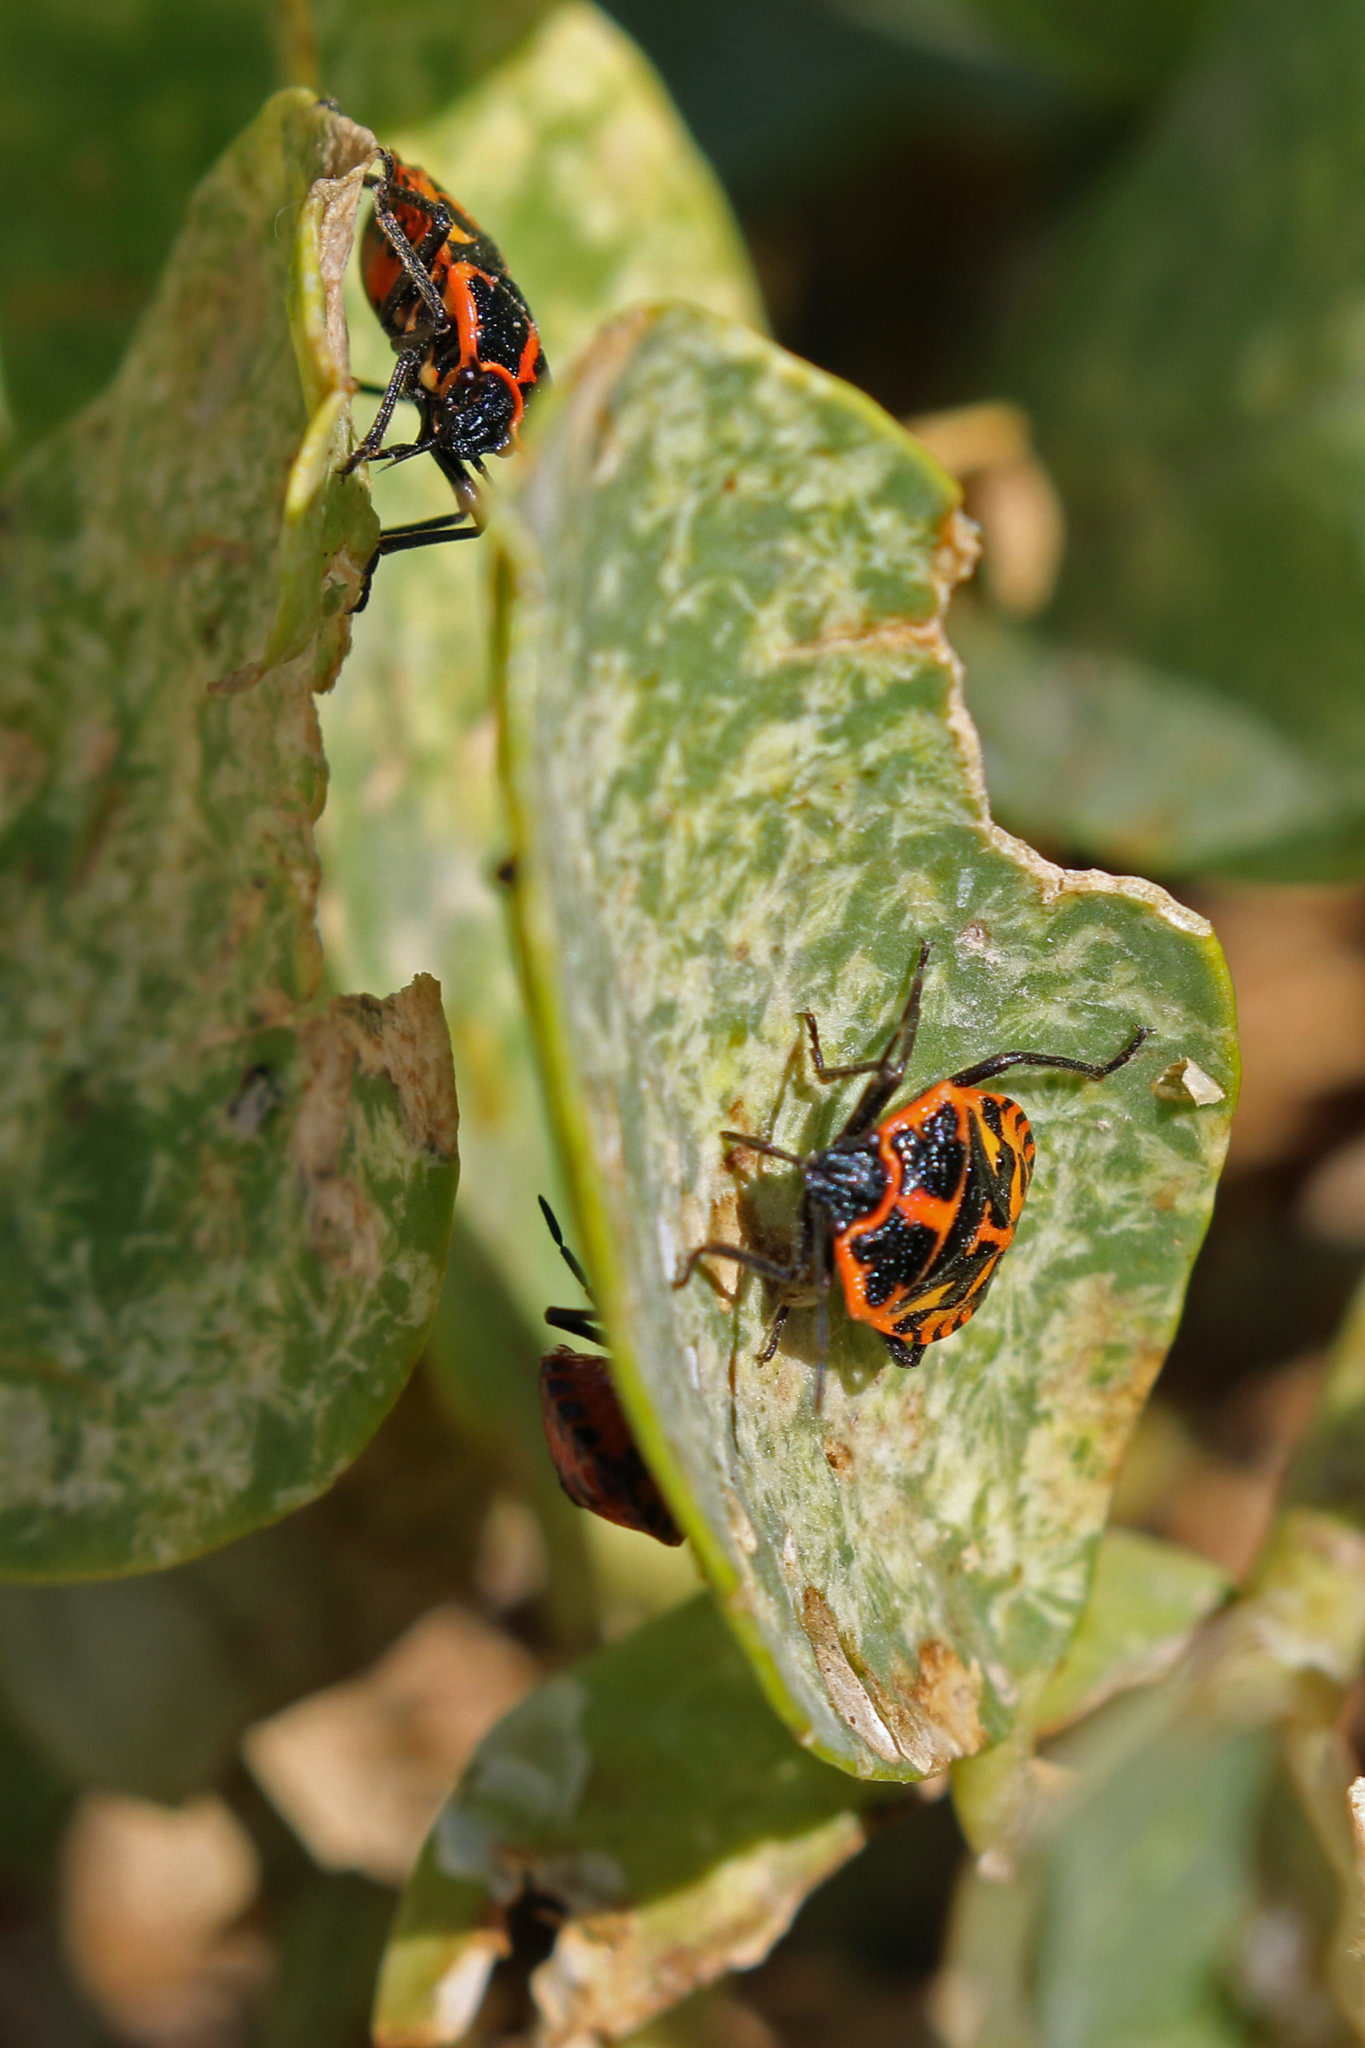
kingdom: Animalia
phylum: Arthropoda
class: Insecta
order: Hemiptera
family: Pentatomidae
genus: Eurydema
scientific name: Eurydema eckerleini
